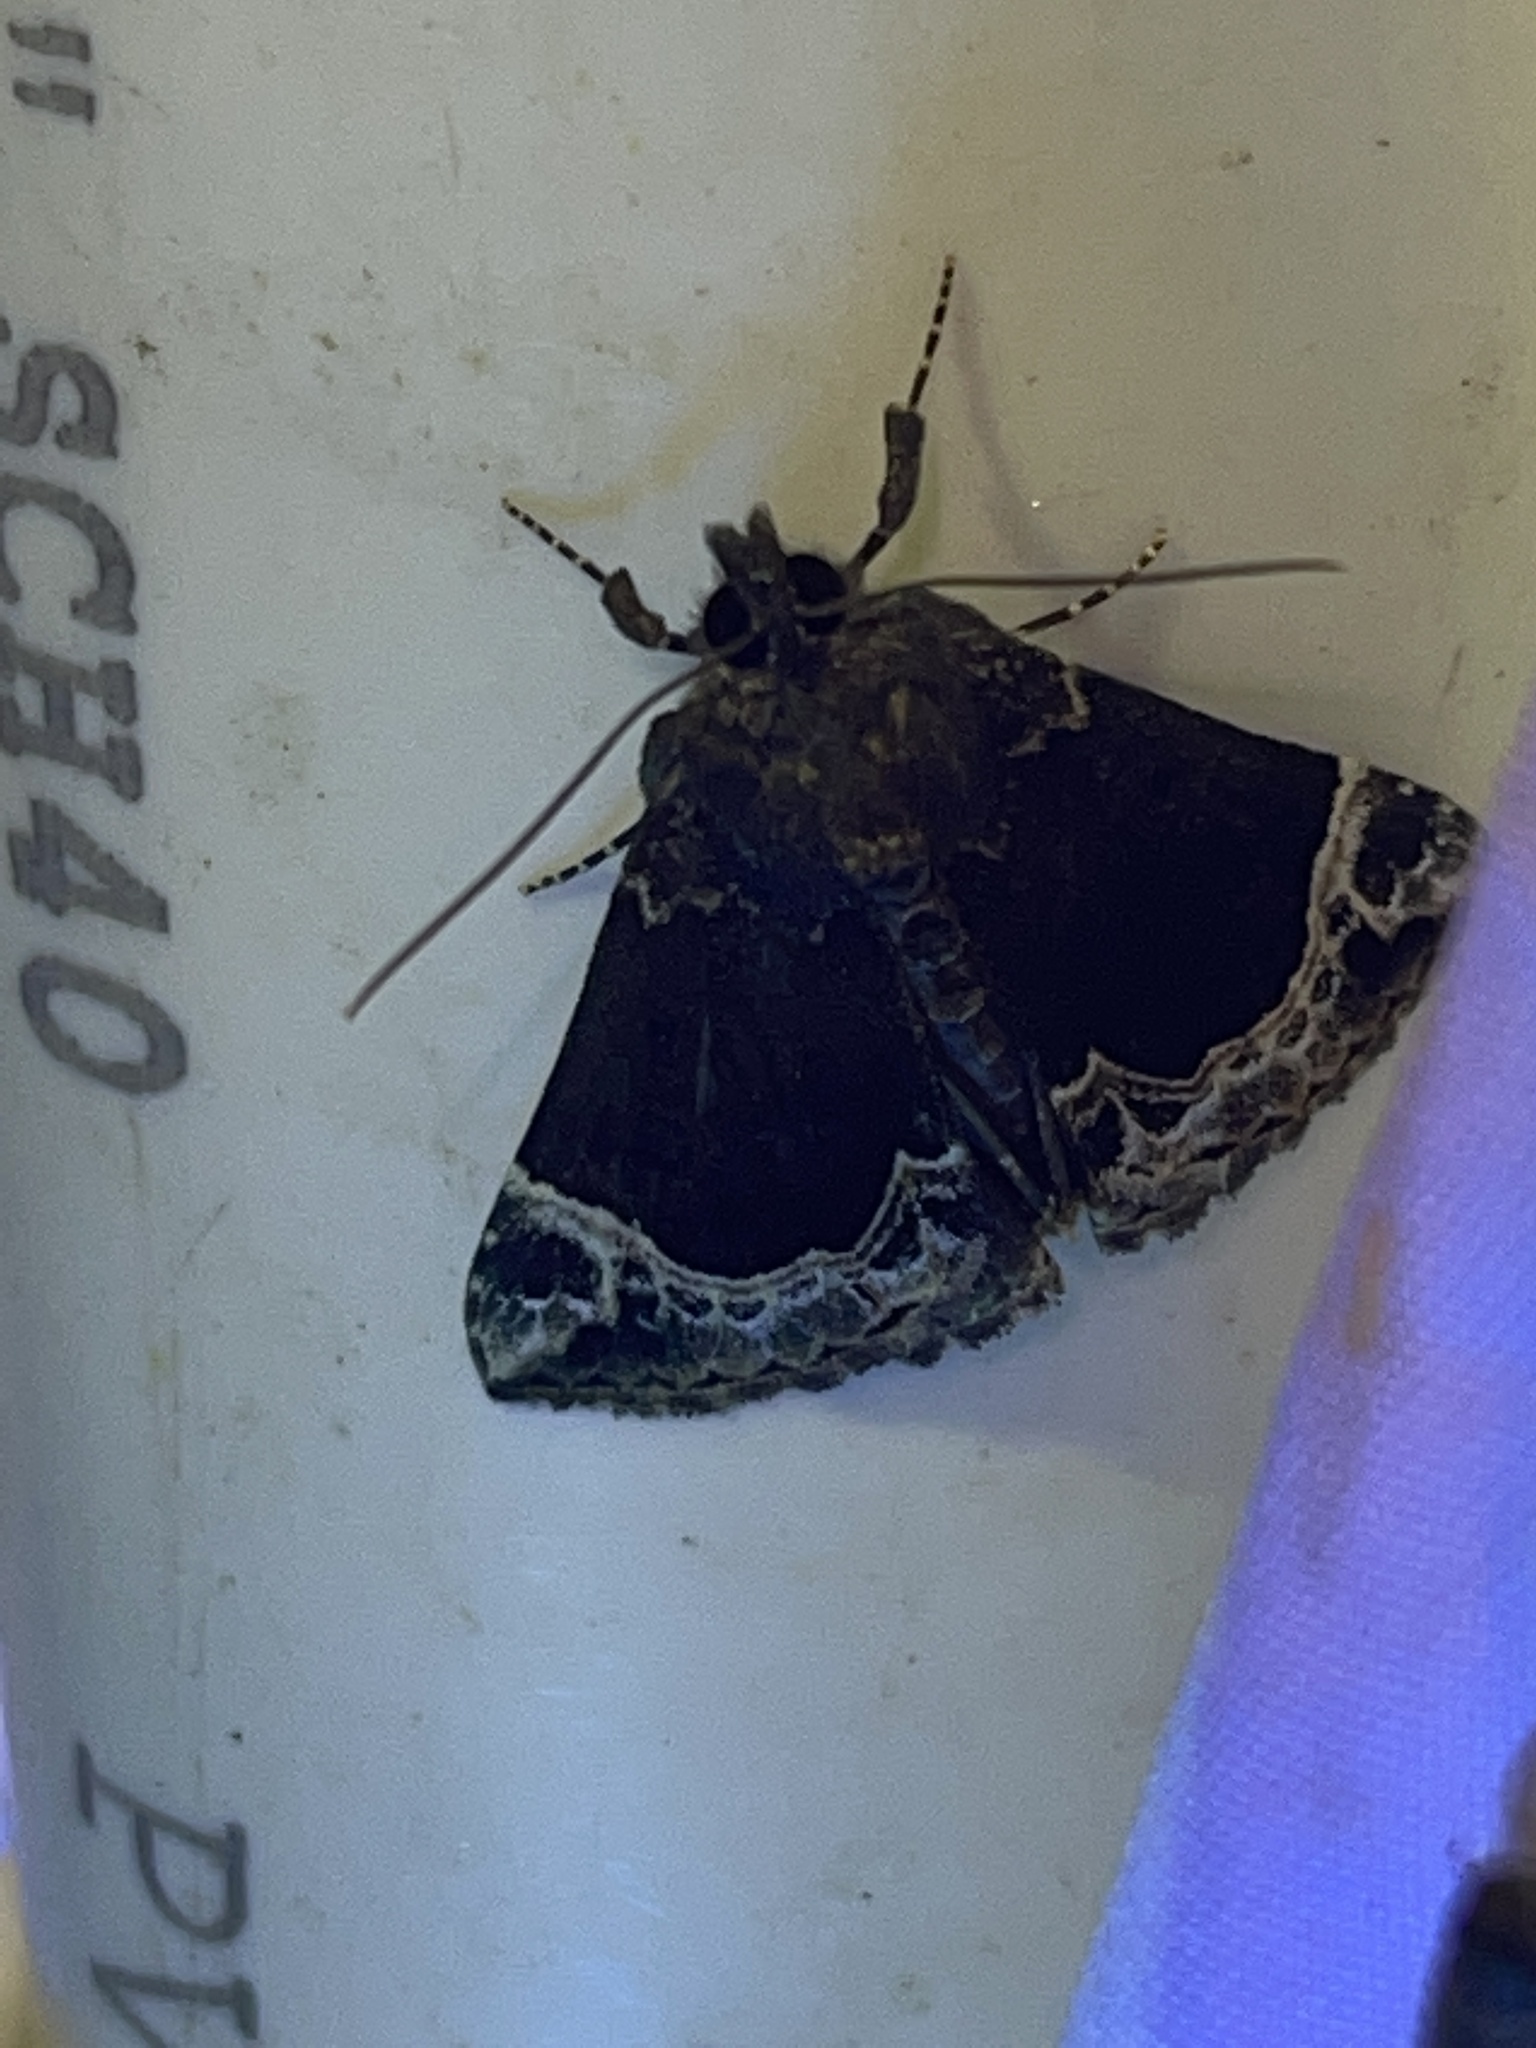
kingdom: Animalia
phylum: Arthropoda
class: Insecta
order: Lepidoptera
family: Erebidae
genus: Hypena
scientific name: Hypena abalienalis
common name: White-lined snout
